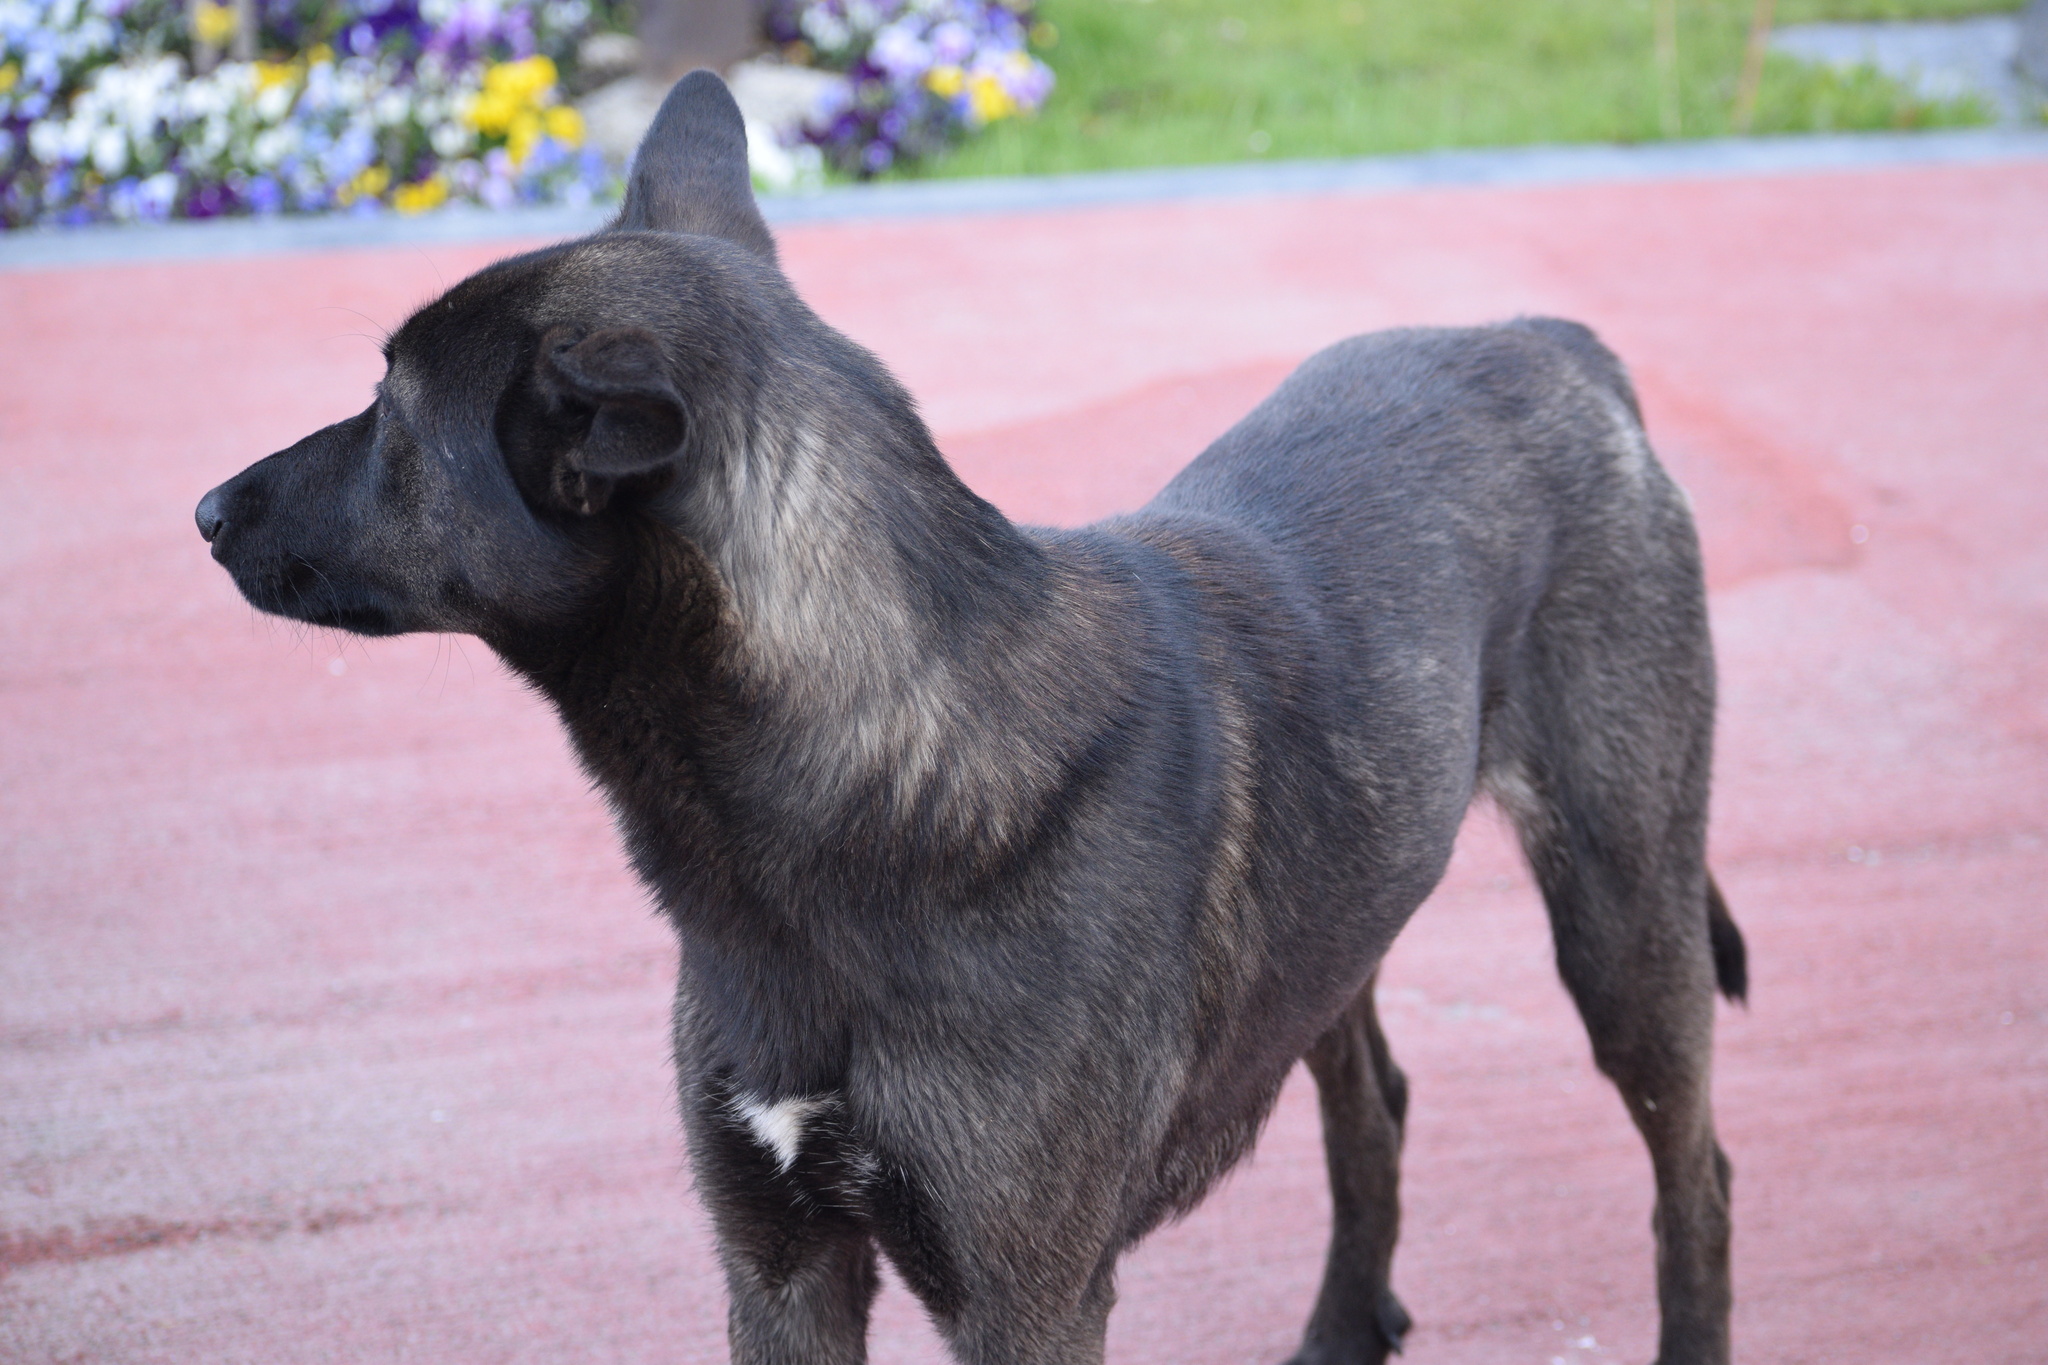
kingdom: Animalia
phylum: Chordata
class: Mammalia
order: Carnivora
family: Canidae
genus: Canis
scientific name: Canis lupus
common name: Gray wolf
